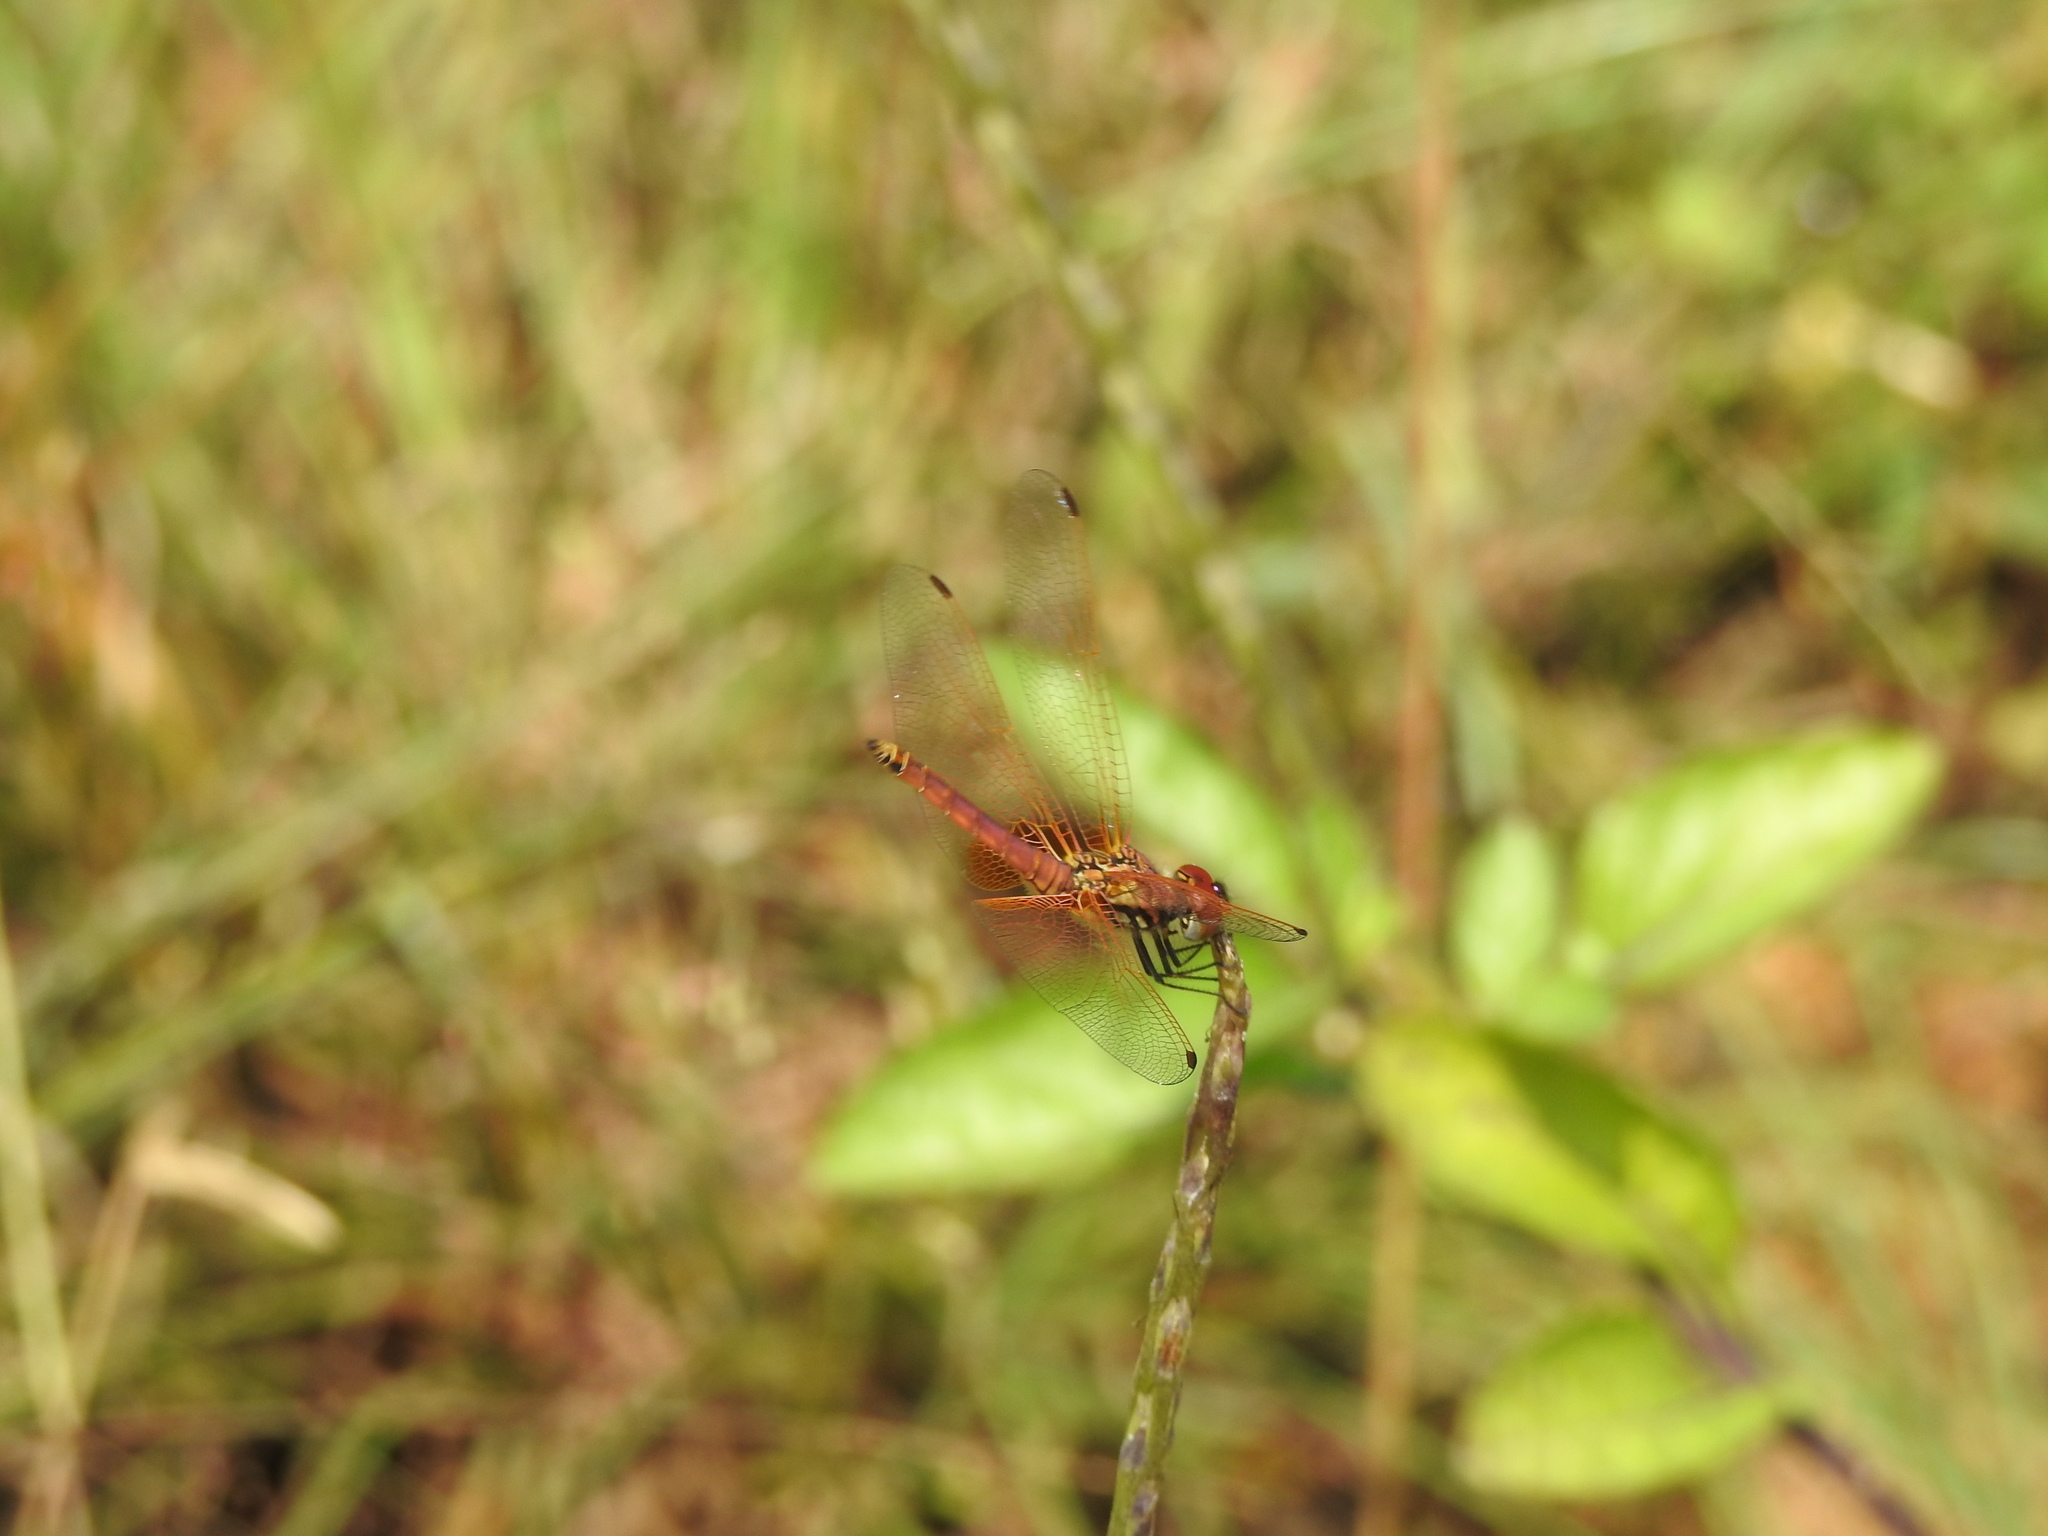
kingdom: Animalia
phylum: Arthropoda
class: Insecta
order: Odonata
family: Libellulidae
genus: Trithemis
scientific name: Trithemis aurora
